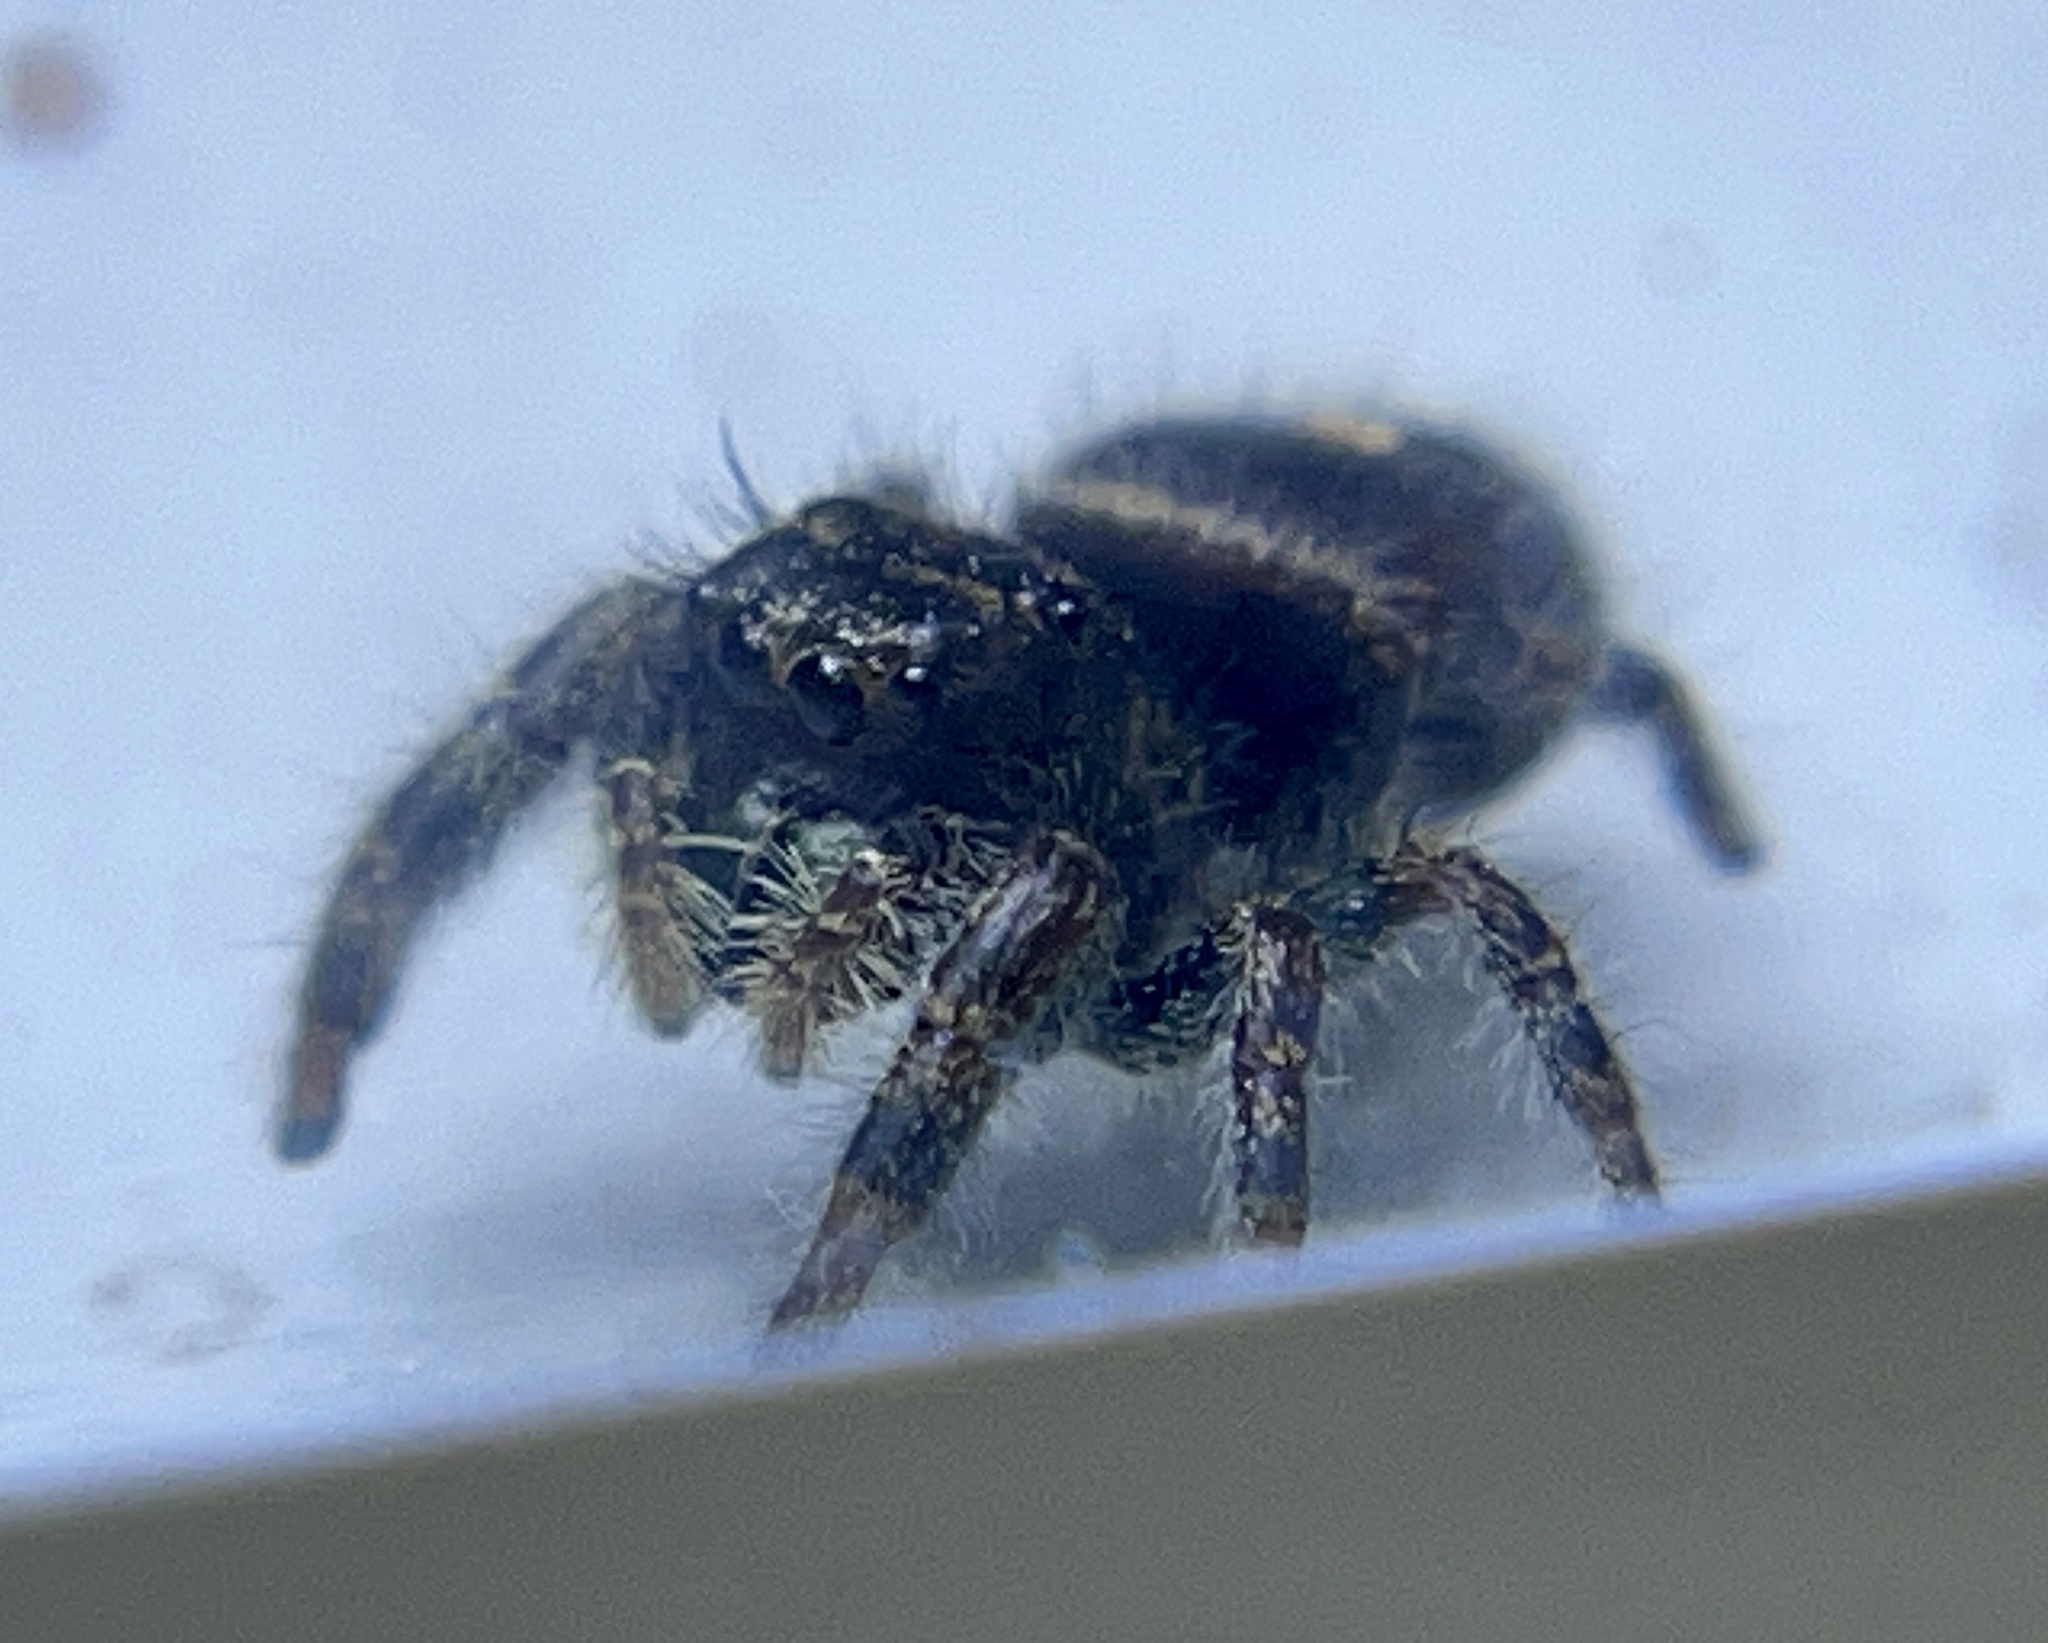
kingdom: Animalia
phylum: Arthropoda
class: Arachnida
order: Araneae
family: Salticidae
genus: Phidippus
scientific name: Phidippus audax
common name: Bold jumper
